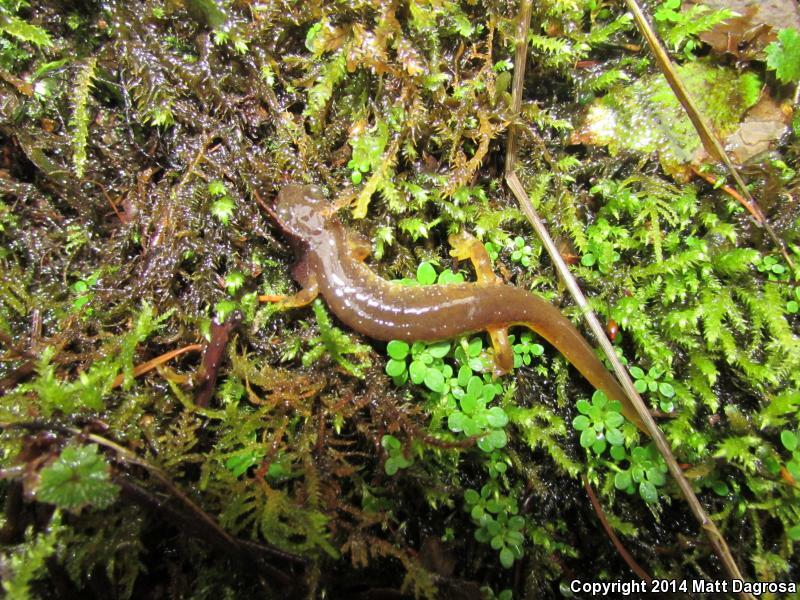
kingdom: Animalia
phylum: Chordata
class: Amphibia
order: Caudata
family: Rhyacotritonidae
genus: Rhyacotriton
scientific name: Rhyacotriton kezeri
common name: Columbia torrent salamander
